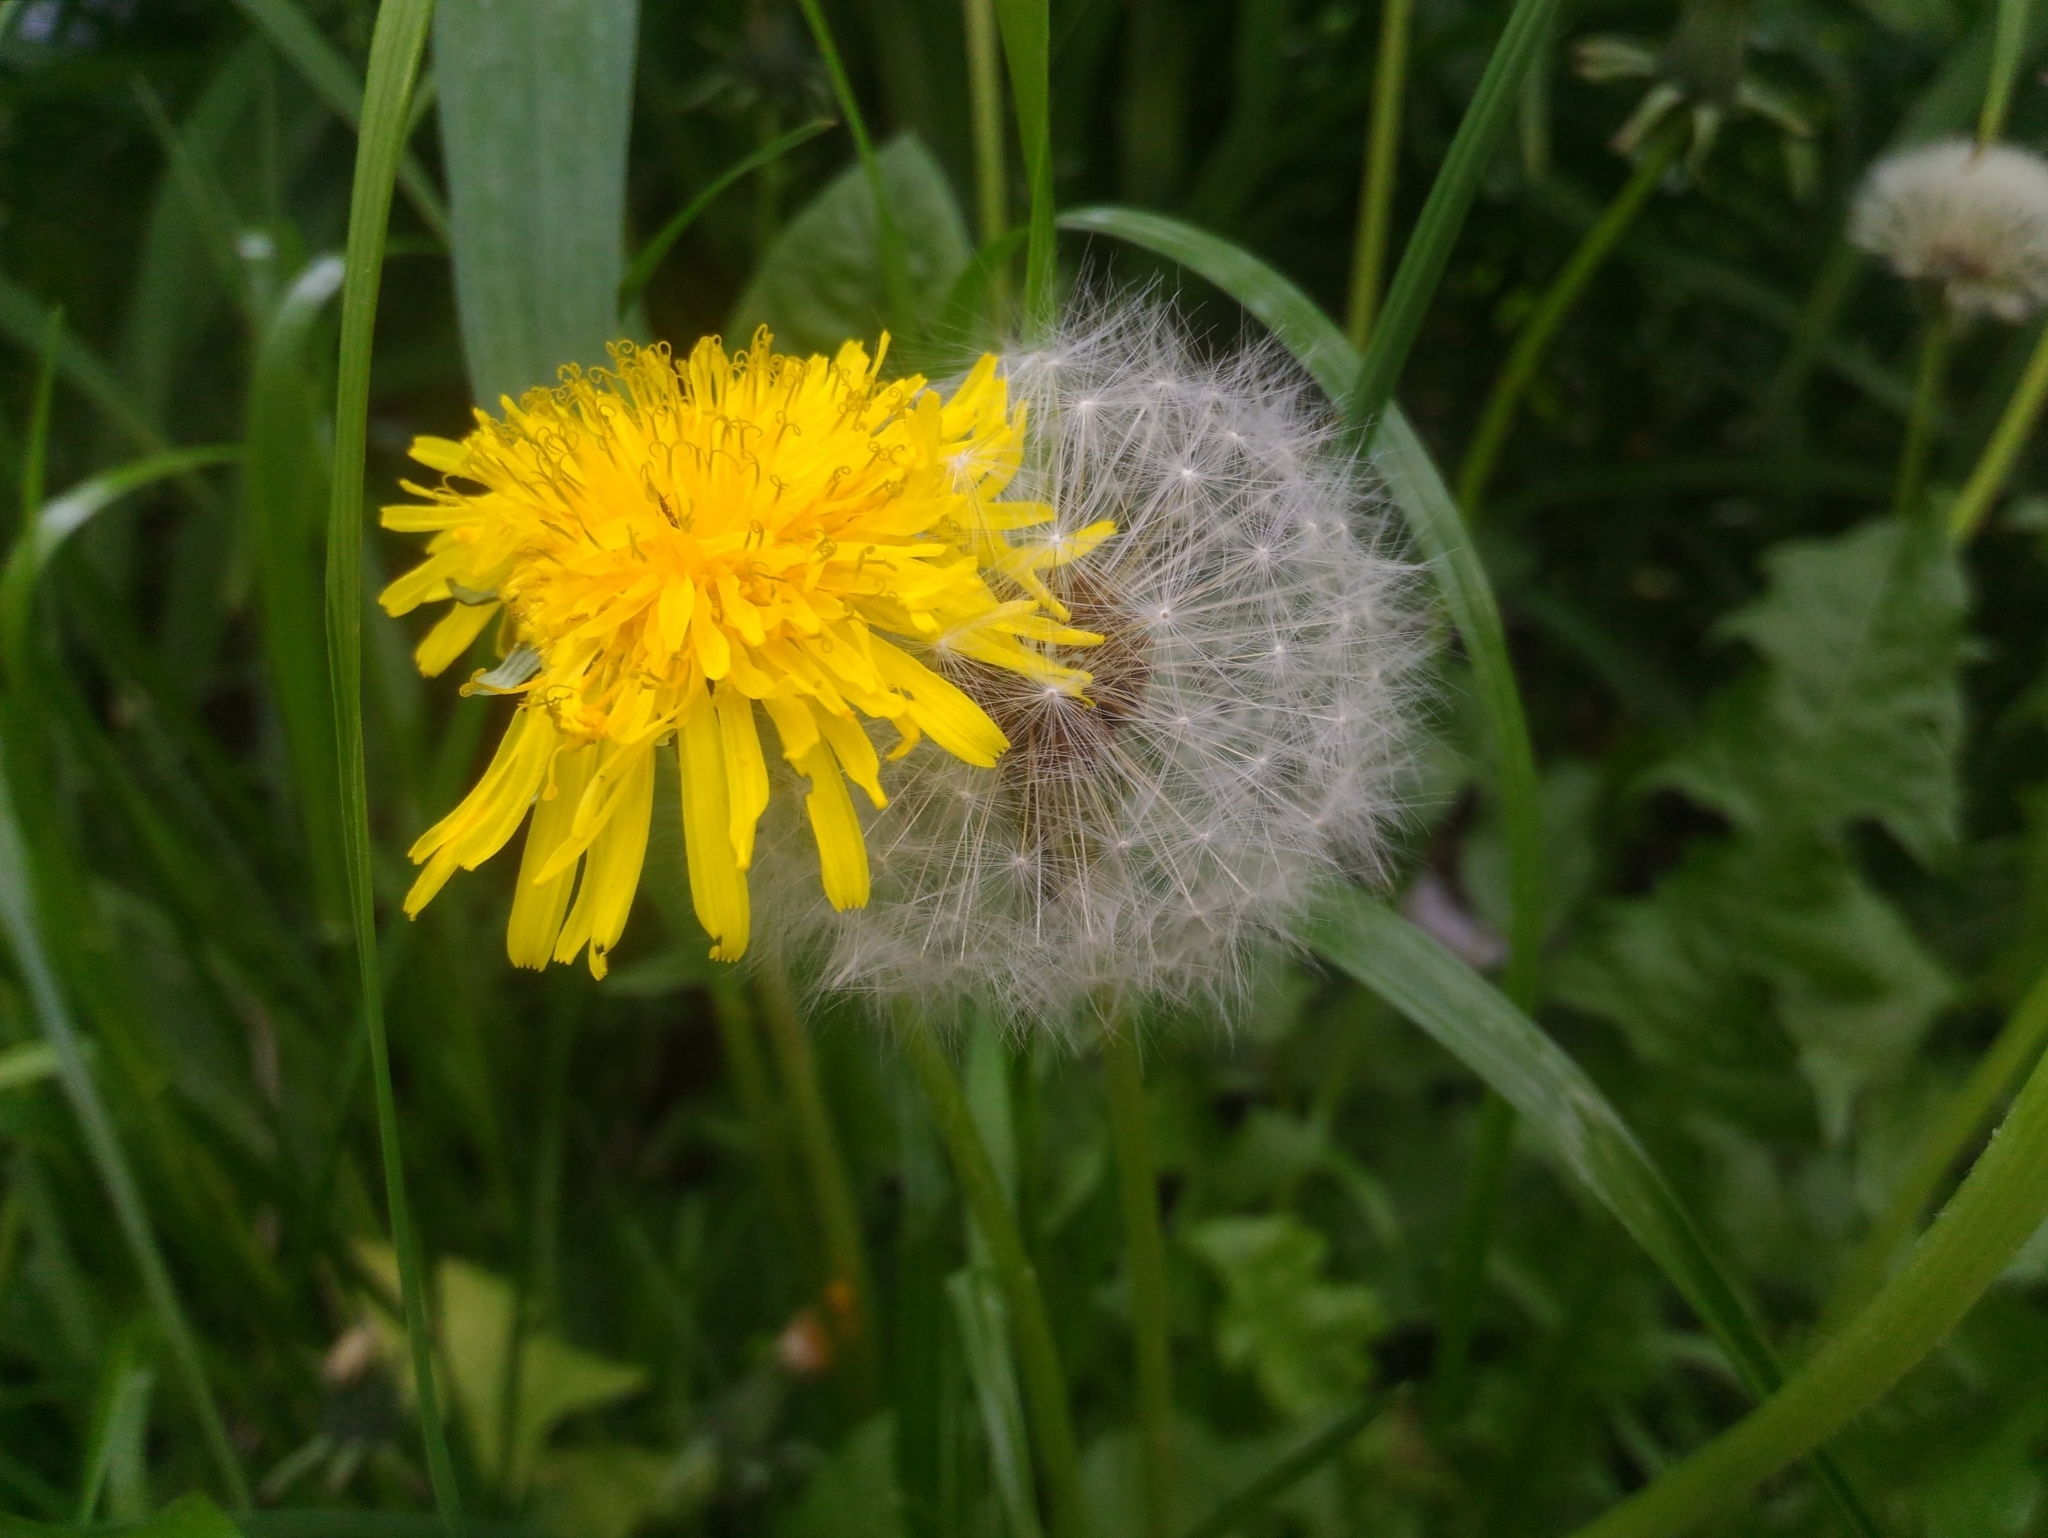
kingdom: Plantae
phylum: Tracheophyta
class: Magnoliopsida
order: Asterales
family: Asteraceae
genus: Taraxacum
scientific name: Taraxacum officinale
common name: Common dandelion
